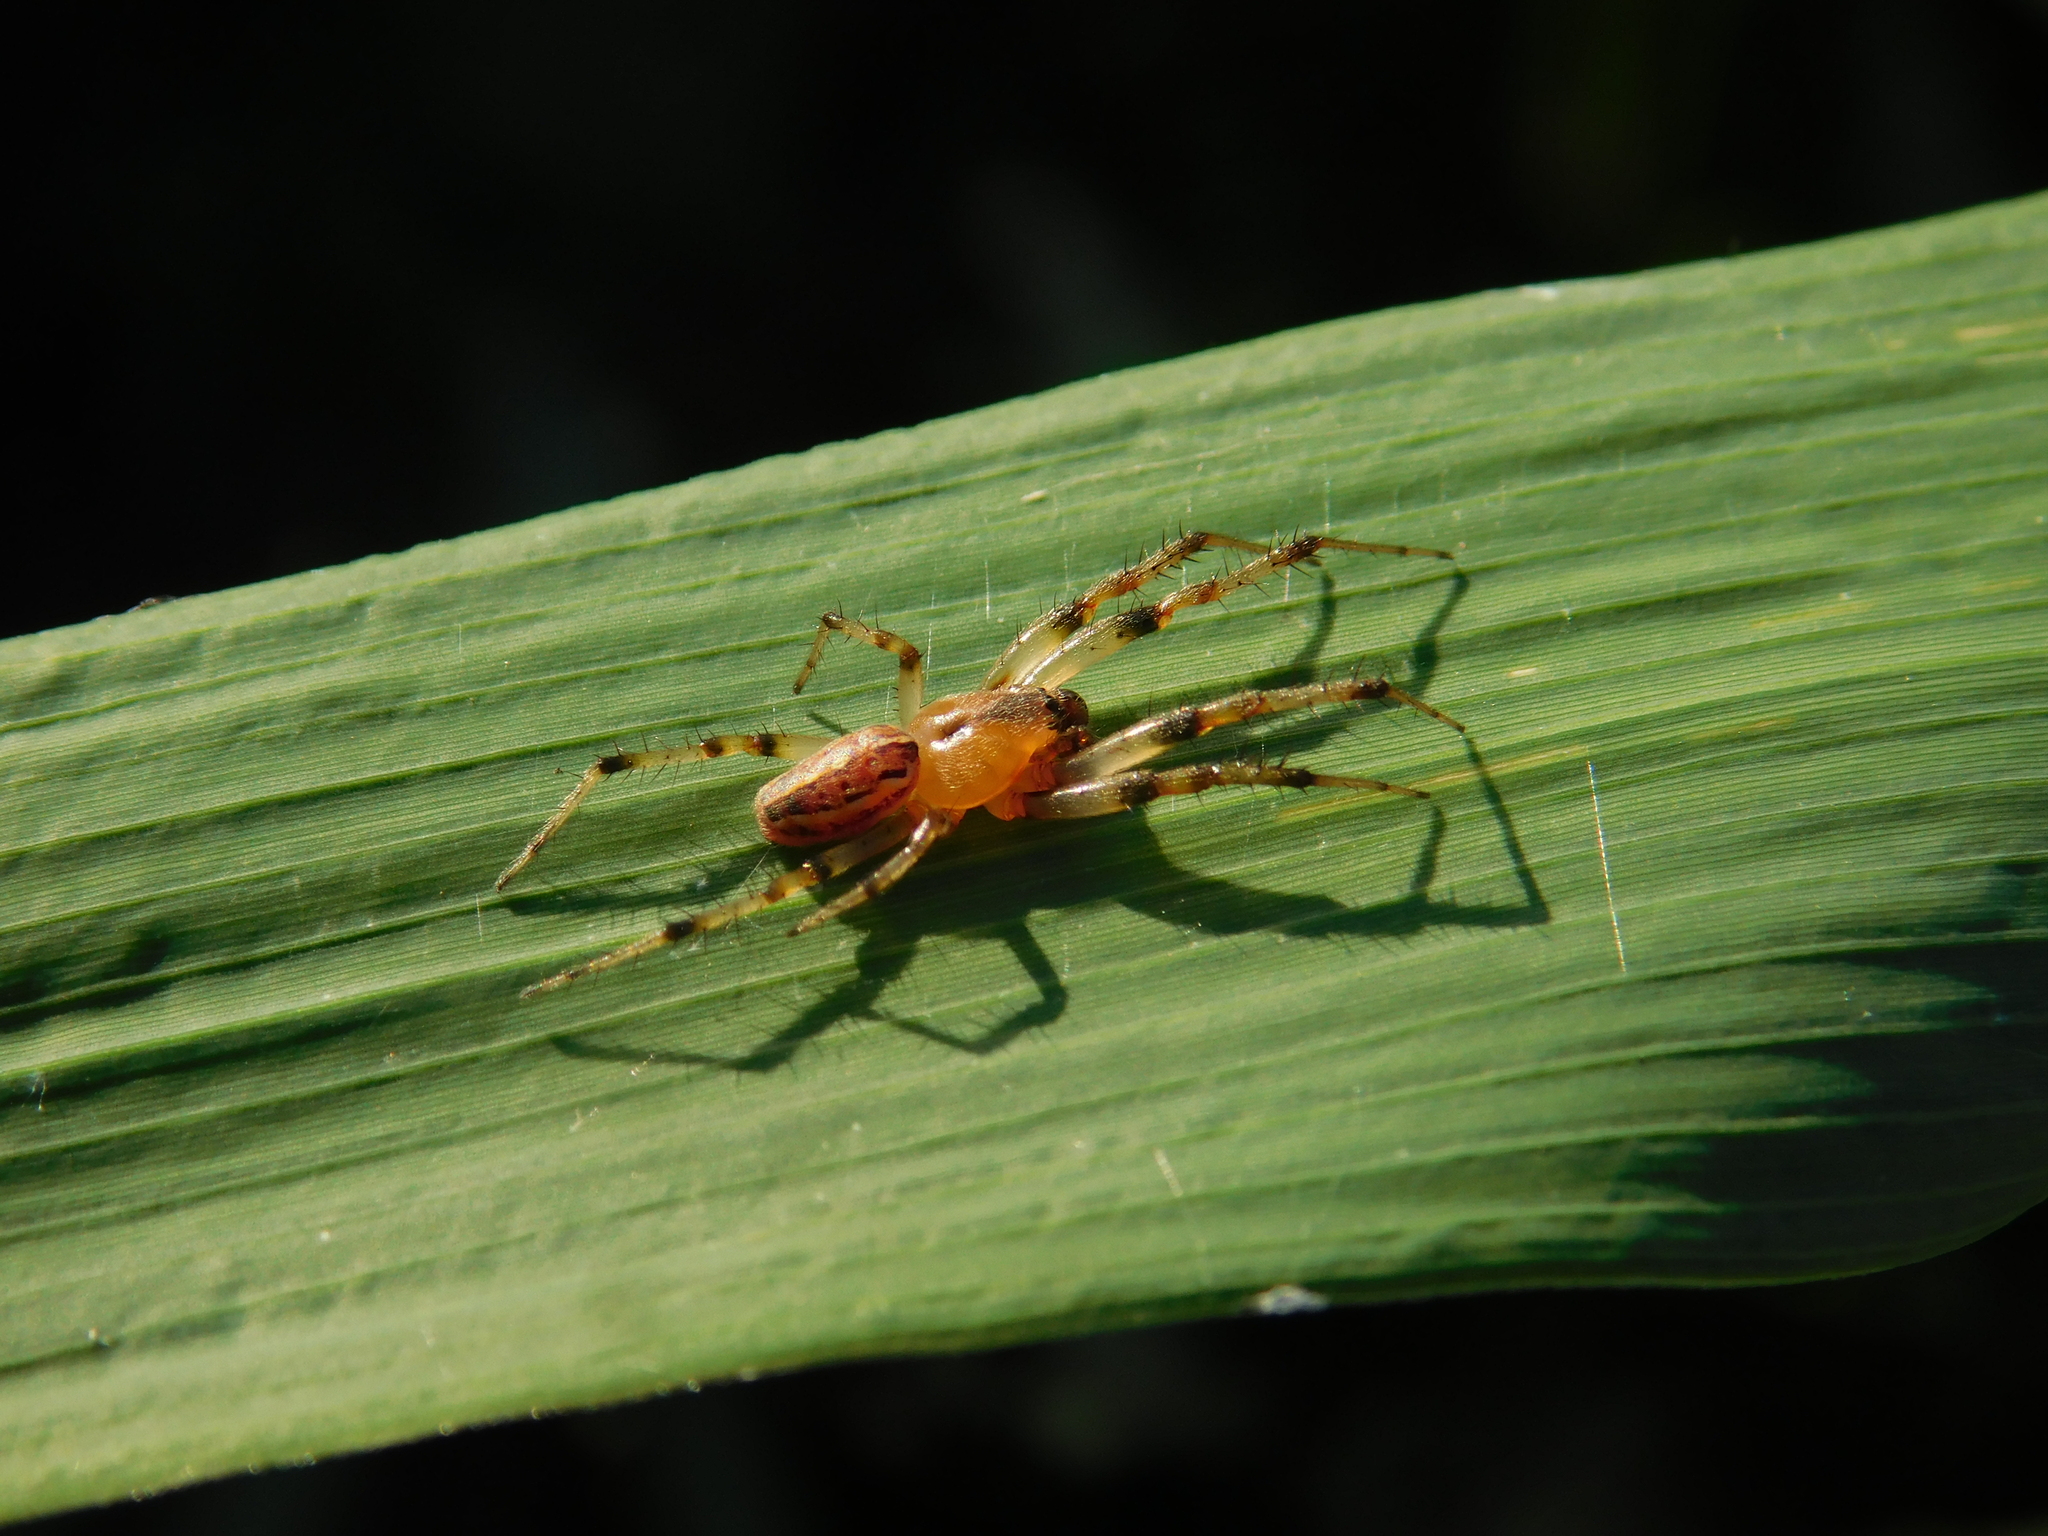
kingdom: Animalia
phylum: Arthropoda
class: Arachnida
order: Araneae
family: Araneidae
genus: Alpaida
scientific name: Alpaida veniliae
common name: Orb weavers
